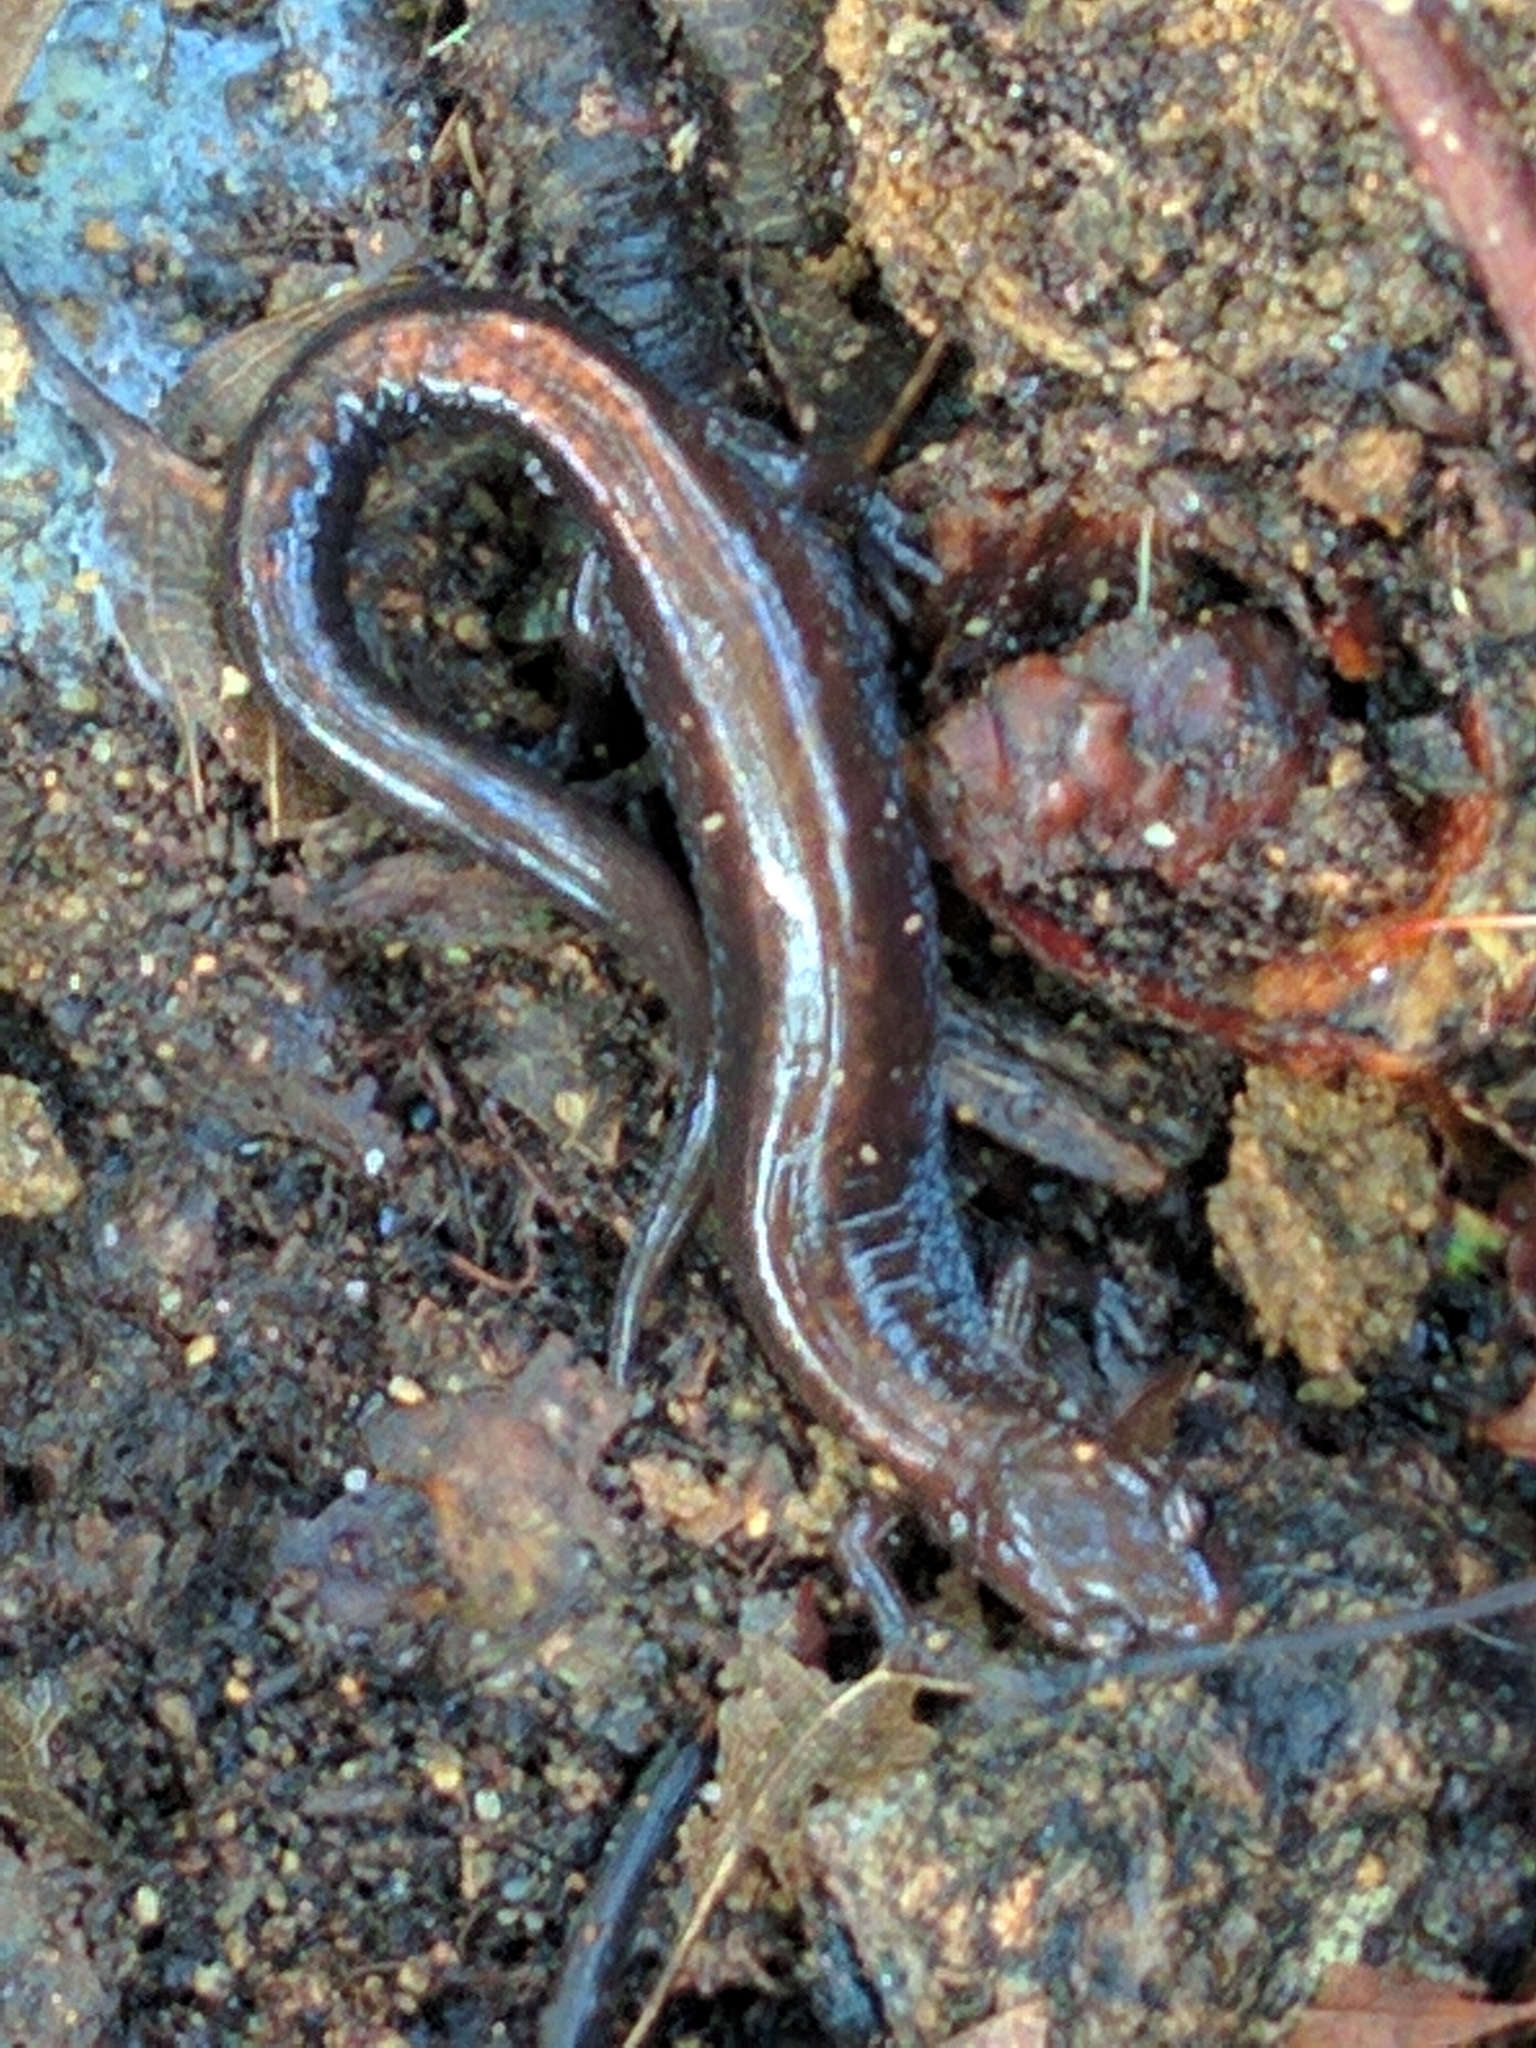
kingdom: Animalia
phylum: Chordata
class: Amphibia
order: Caudata
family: Plethodontidae
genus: Plethodon
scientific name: Plethodon cinereus
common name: Redback salamander
